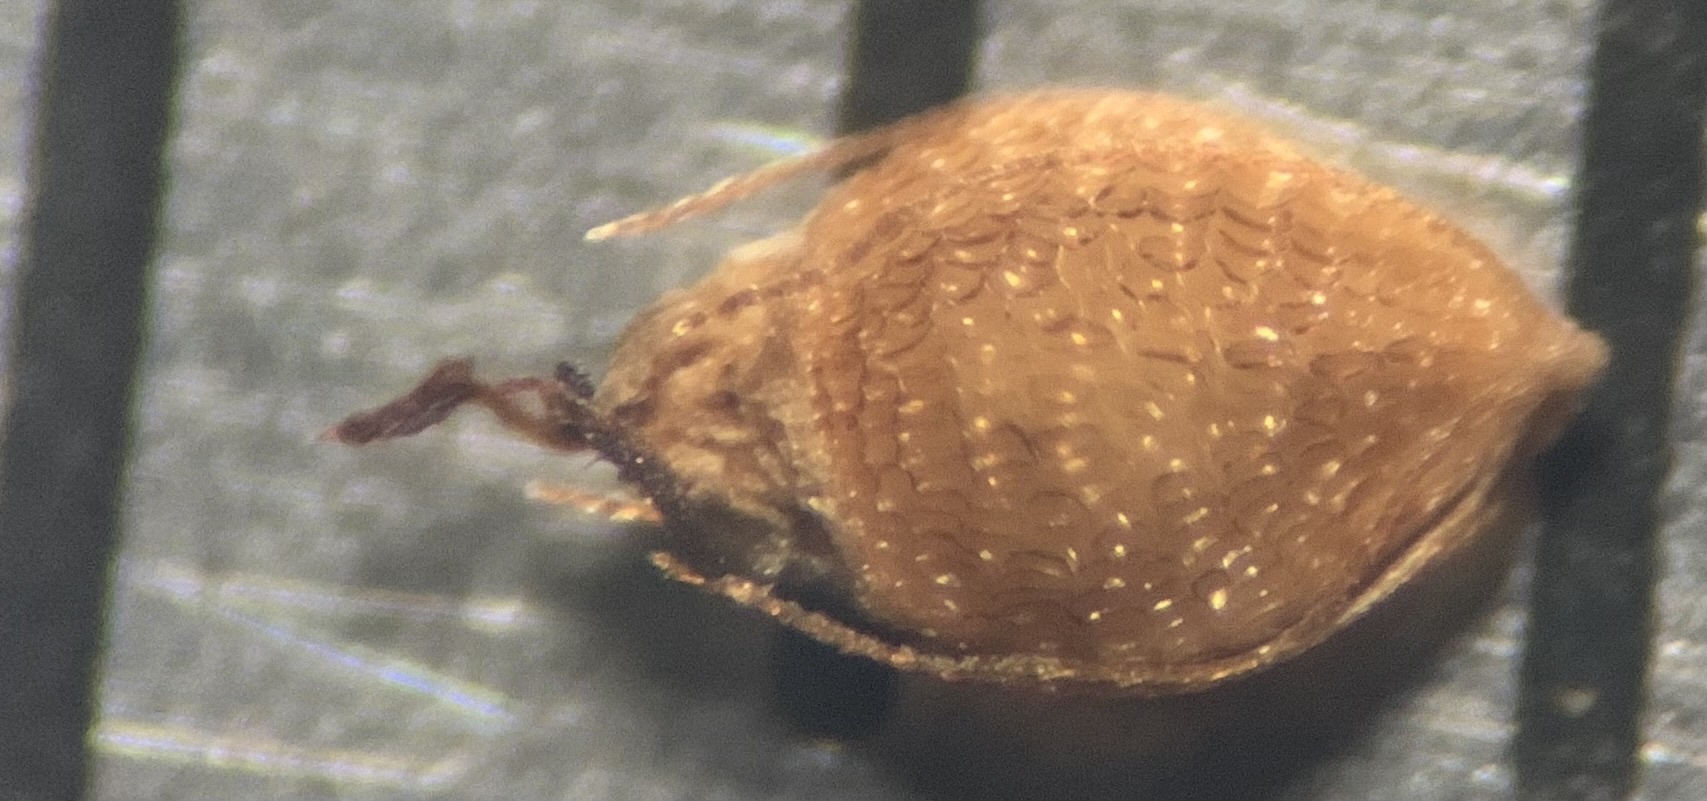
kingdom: Plantae
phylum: Tracheophyta
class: Liliopsida
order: Poales
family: Cyperaceae
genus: Rhynchospora
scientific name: Rhynchospora microcarpa
